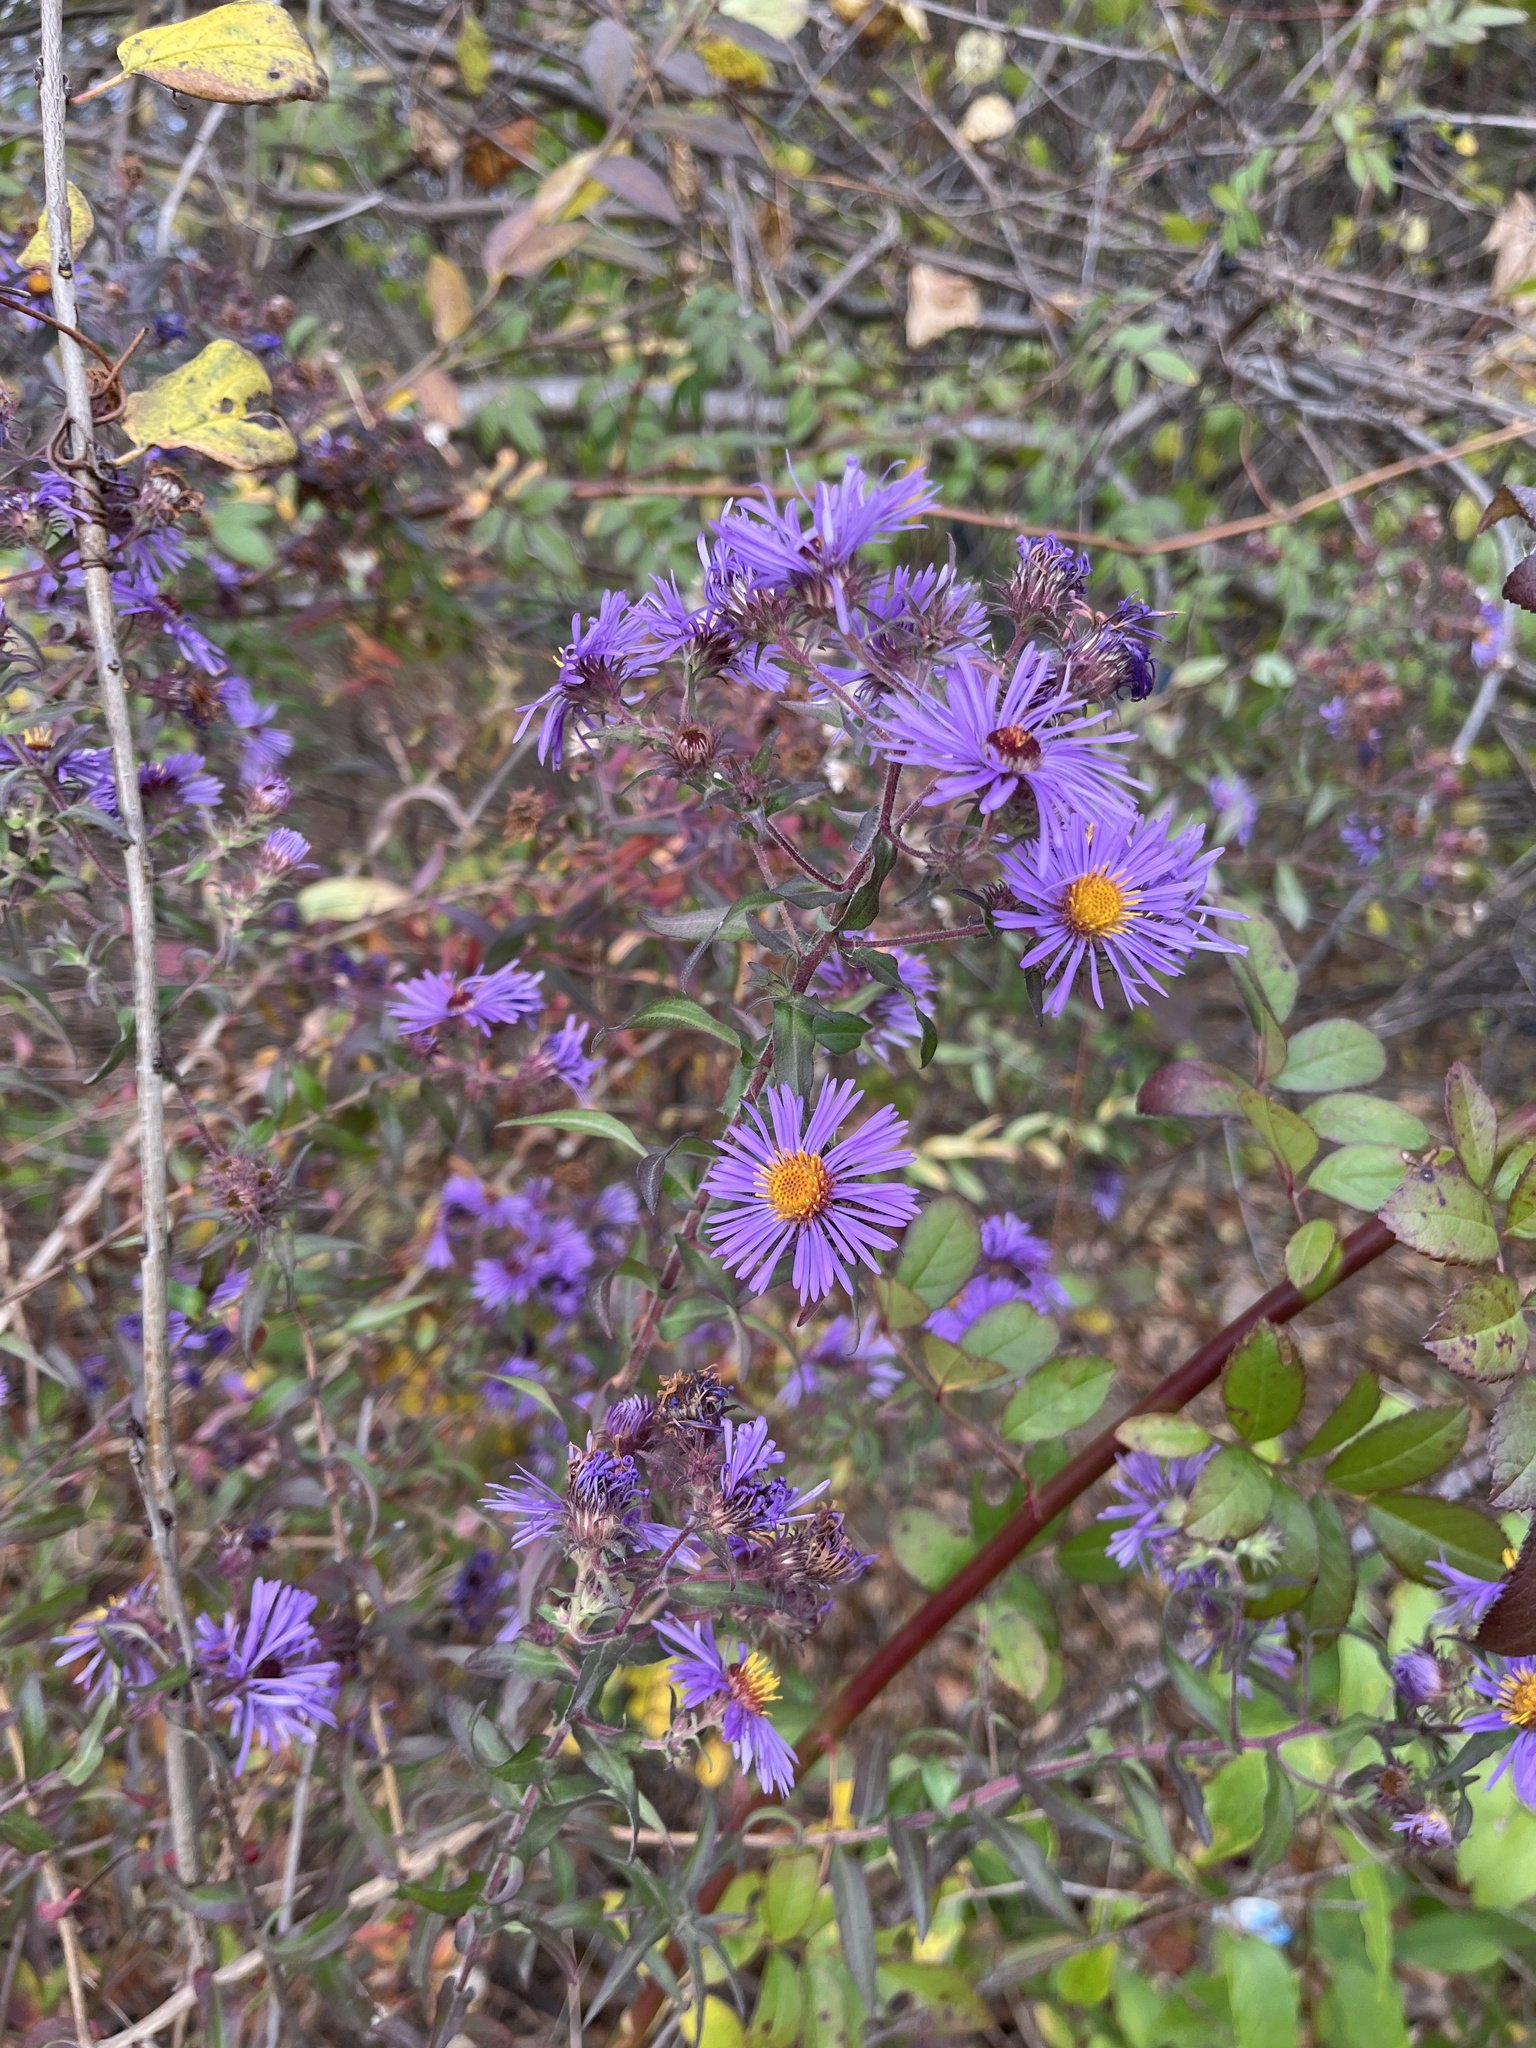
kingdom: Plantae
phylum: Tracheophyta
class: Magnoliopsida
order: Asterales
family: Asteraceae
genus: Symphyotrichum
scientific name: Symphyotrichum novae-angliae
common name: Michaelmas daisy
